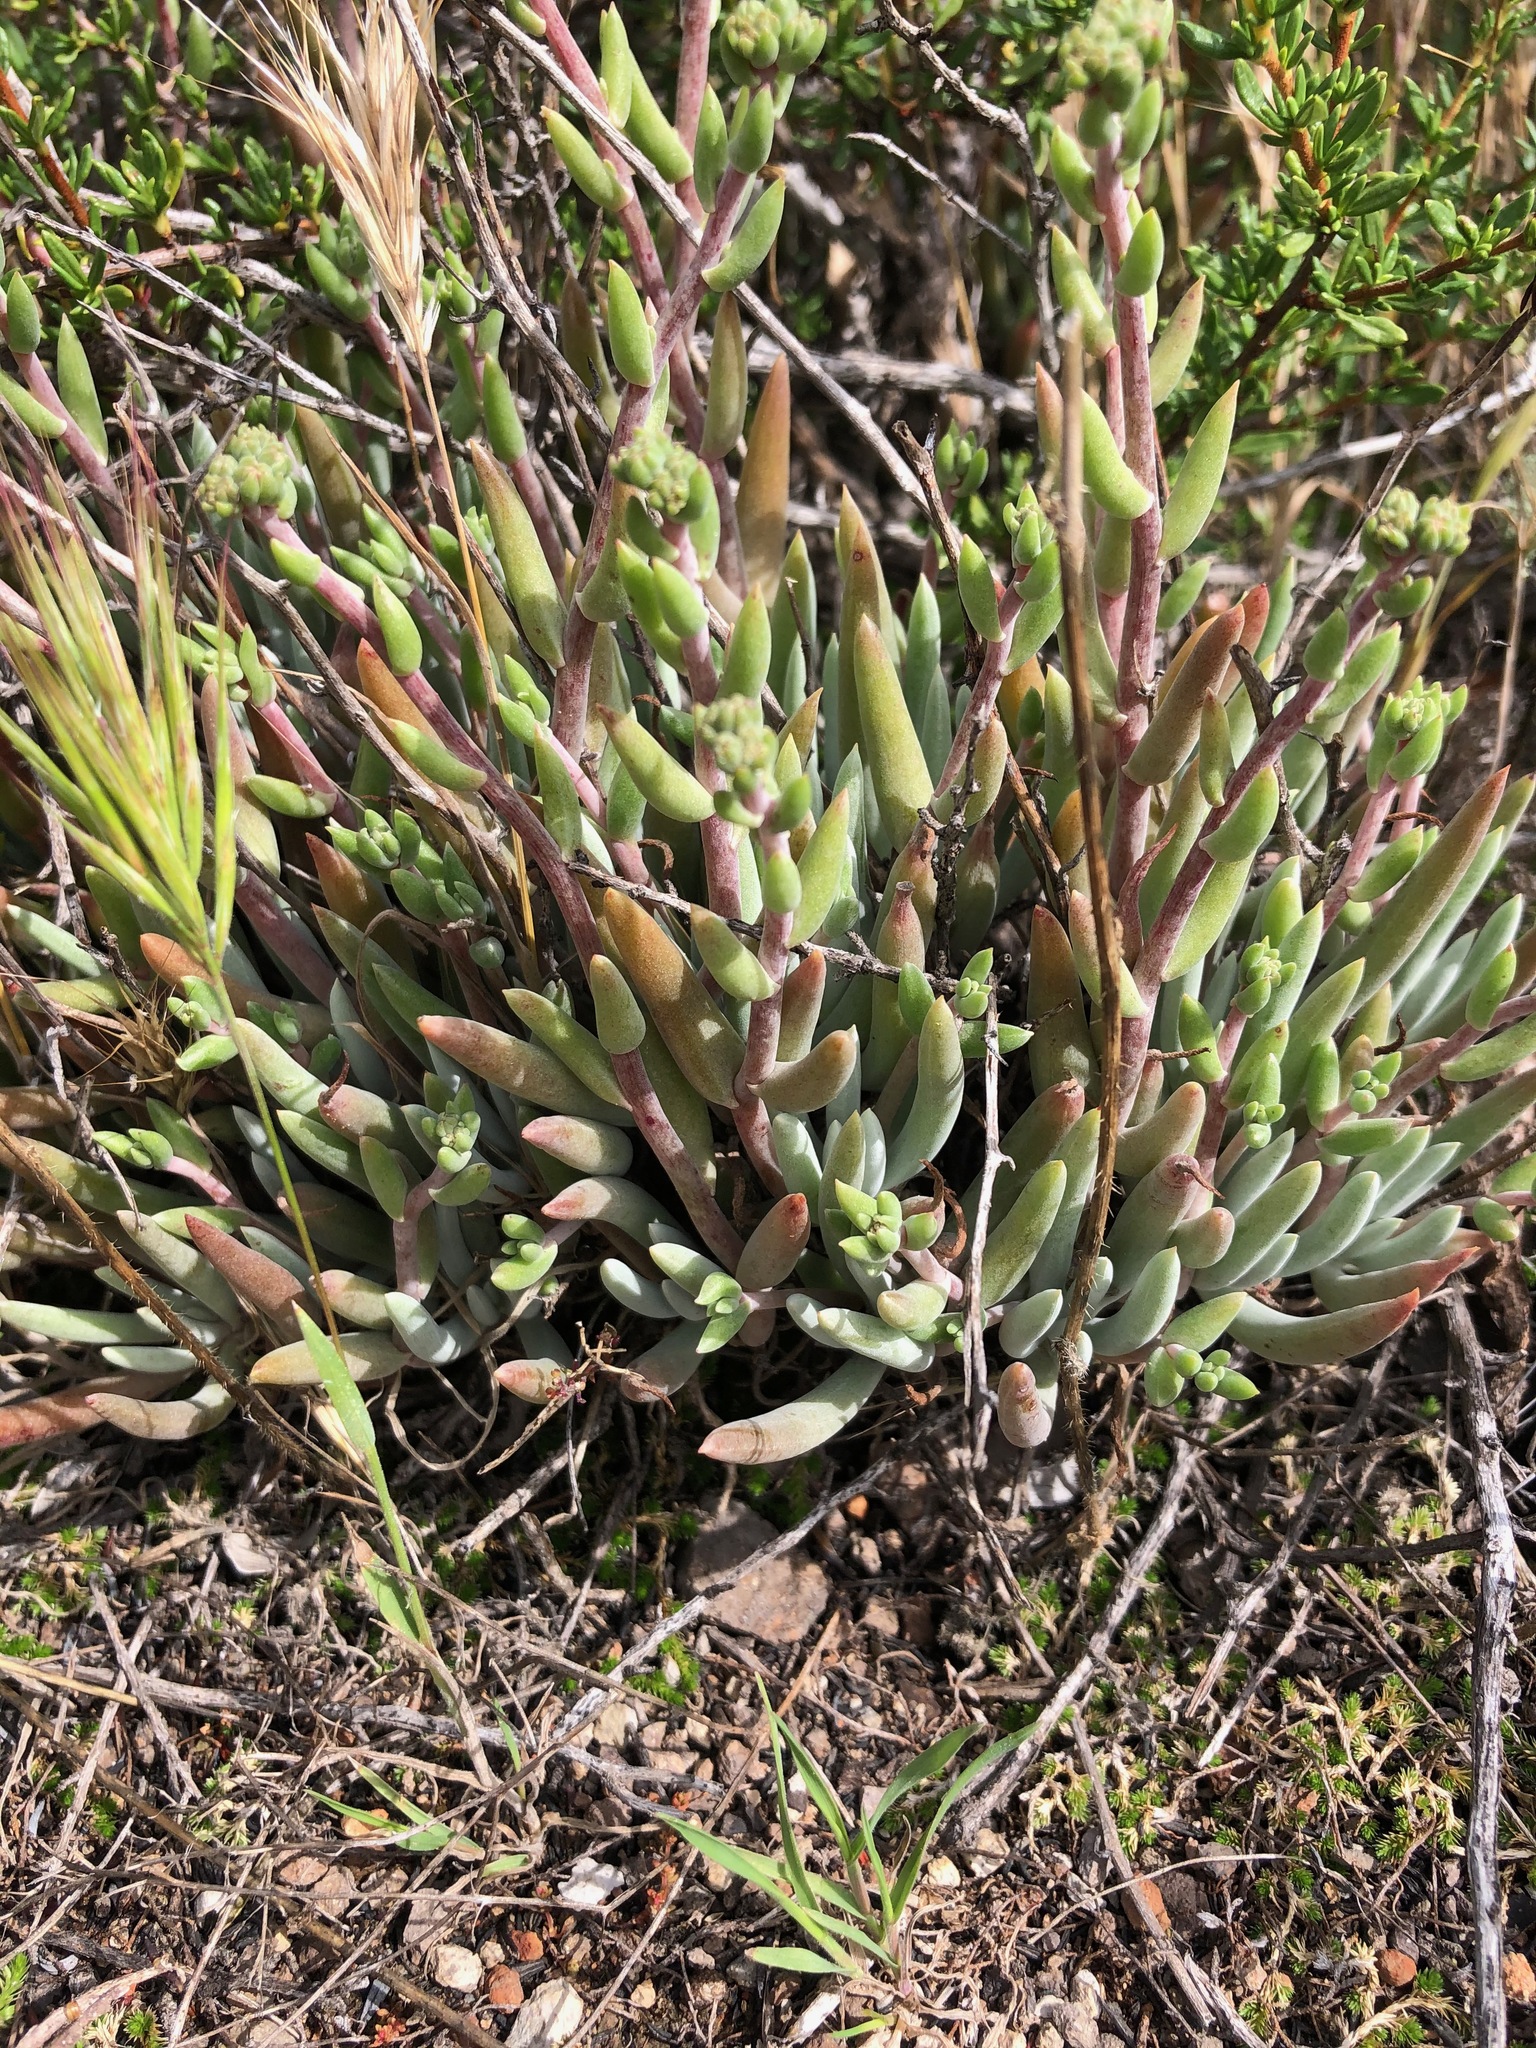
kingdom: Plantae
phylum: Tracheophyta
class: Magnoliopsida
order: Saxifragales
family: Crassulaceae
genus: Dudleya
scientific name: Dudleya attenuata
